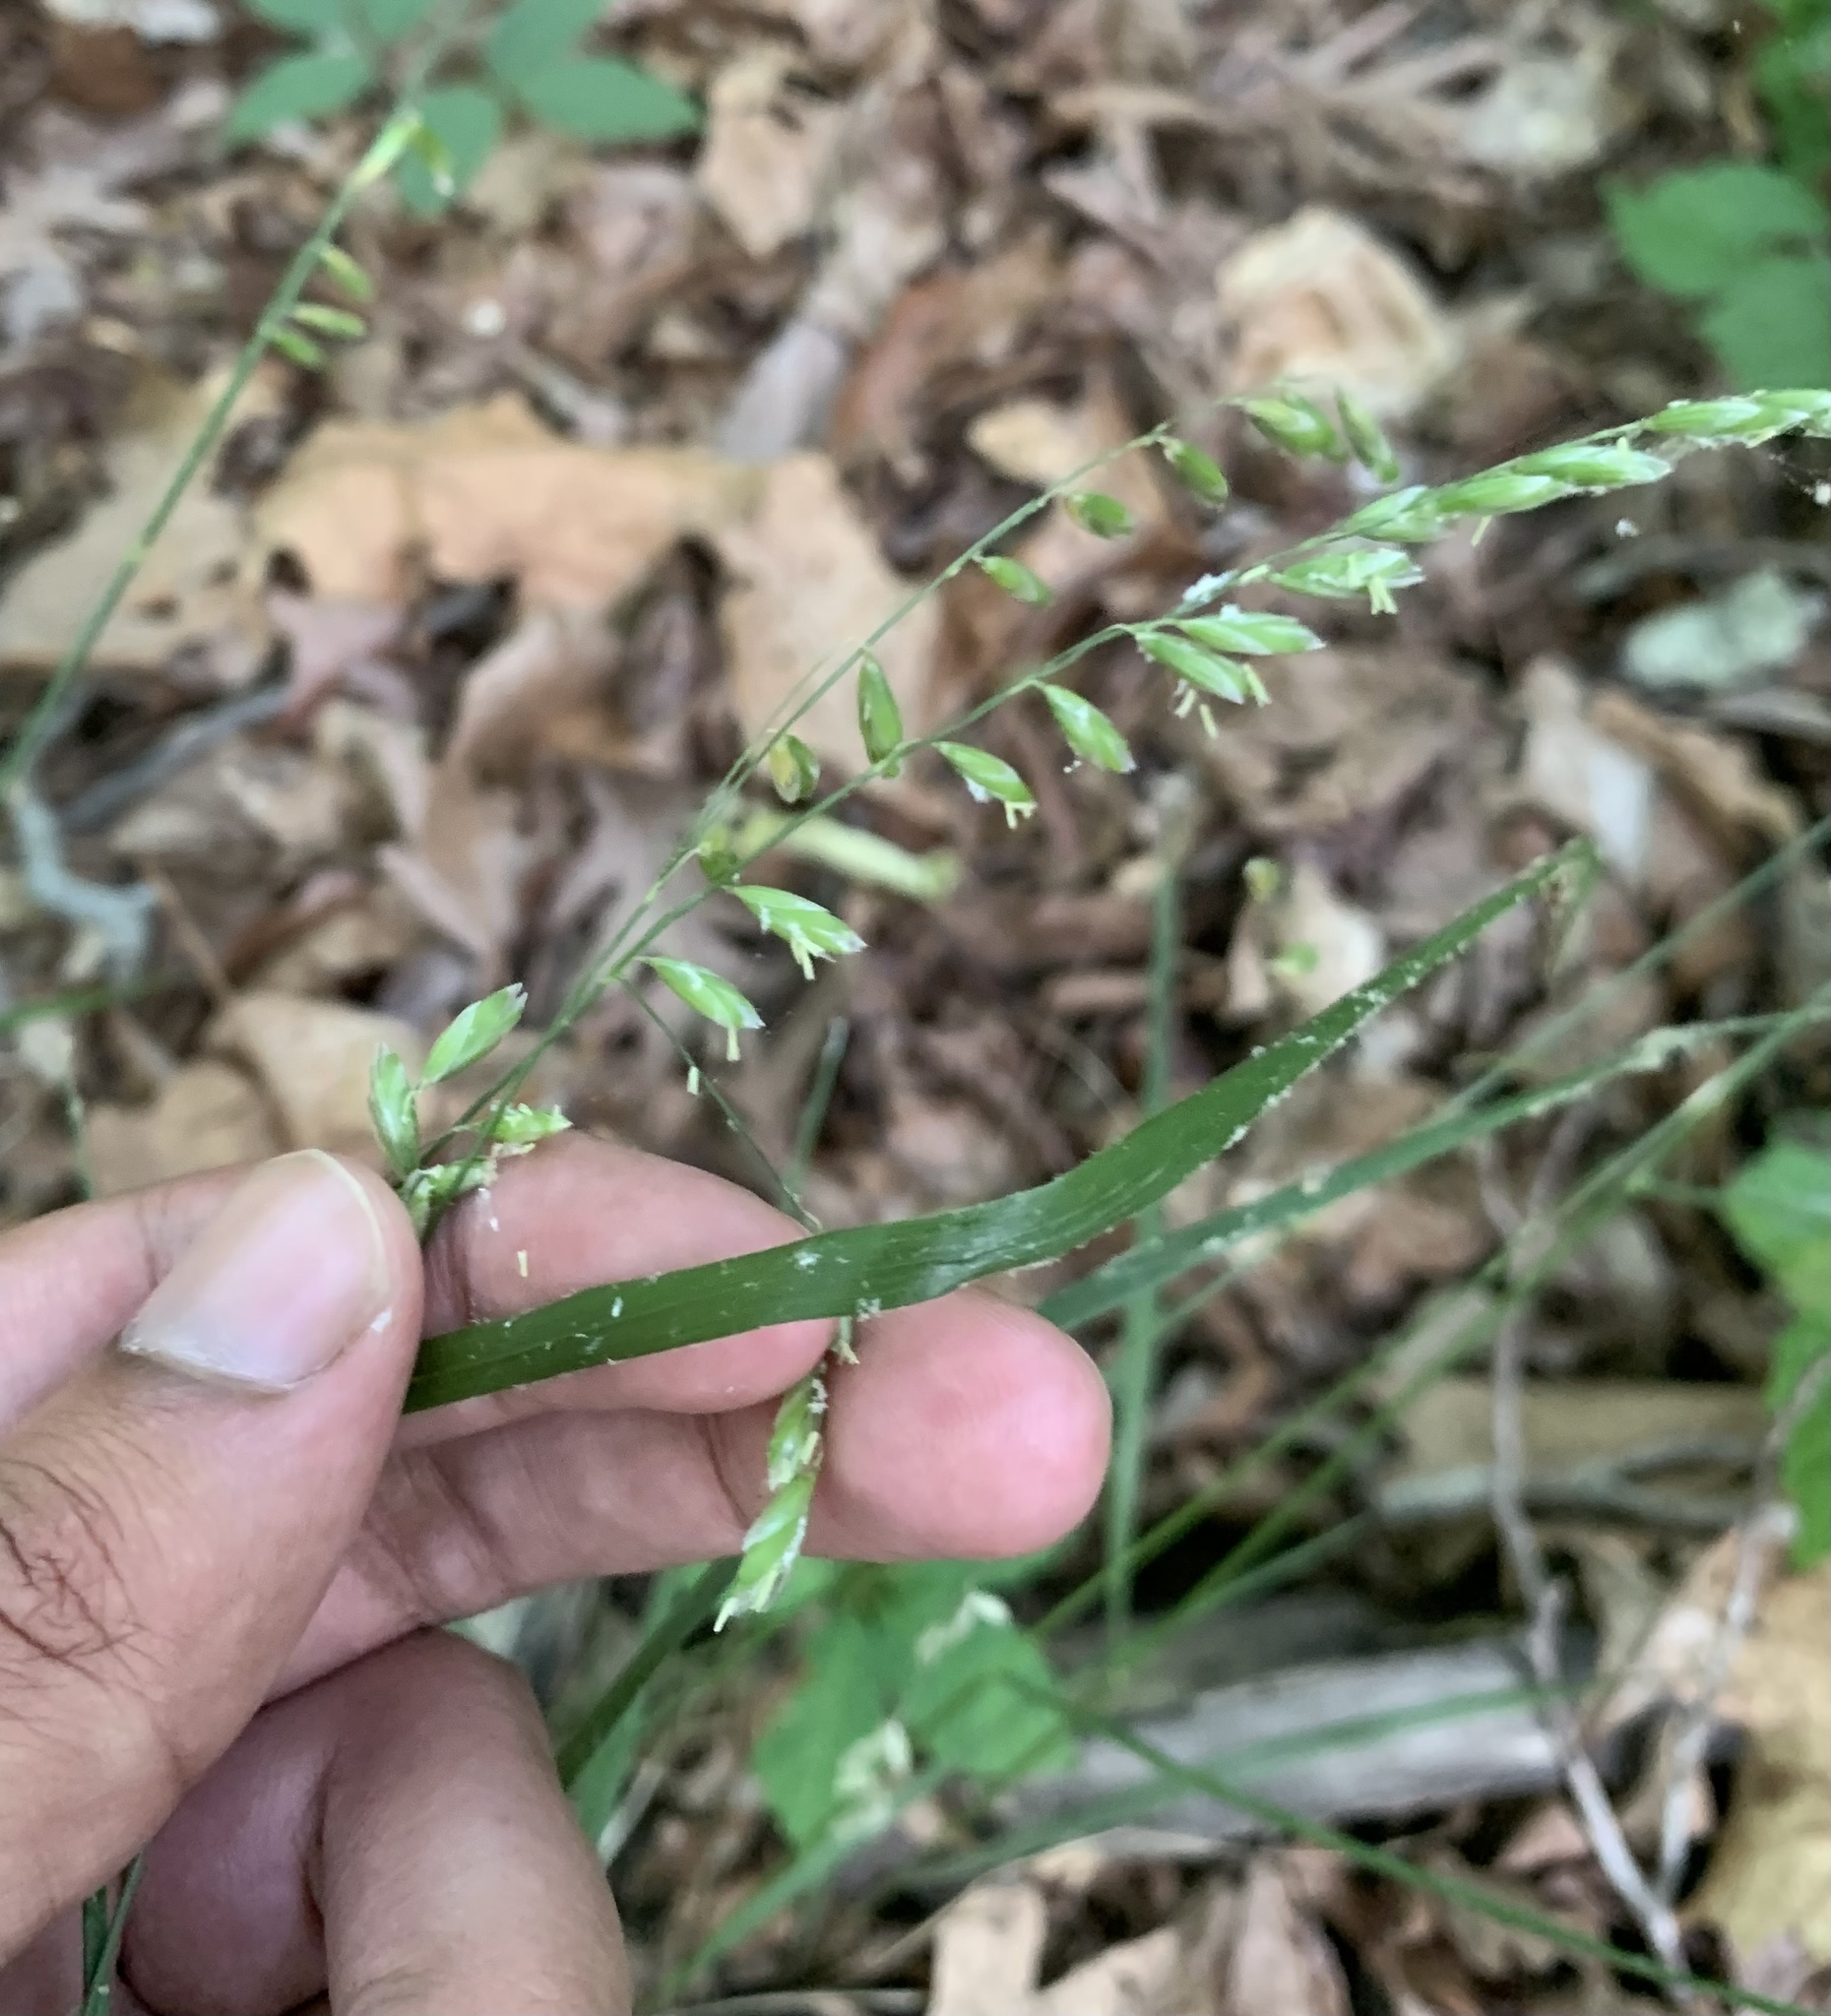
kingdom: Plantae
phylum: Tracheophyta
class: Liliopsida
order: Poales
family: Poaceae
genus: Melica
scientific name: Melica mutica
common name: Two-flower melic
